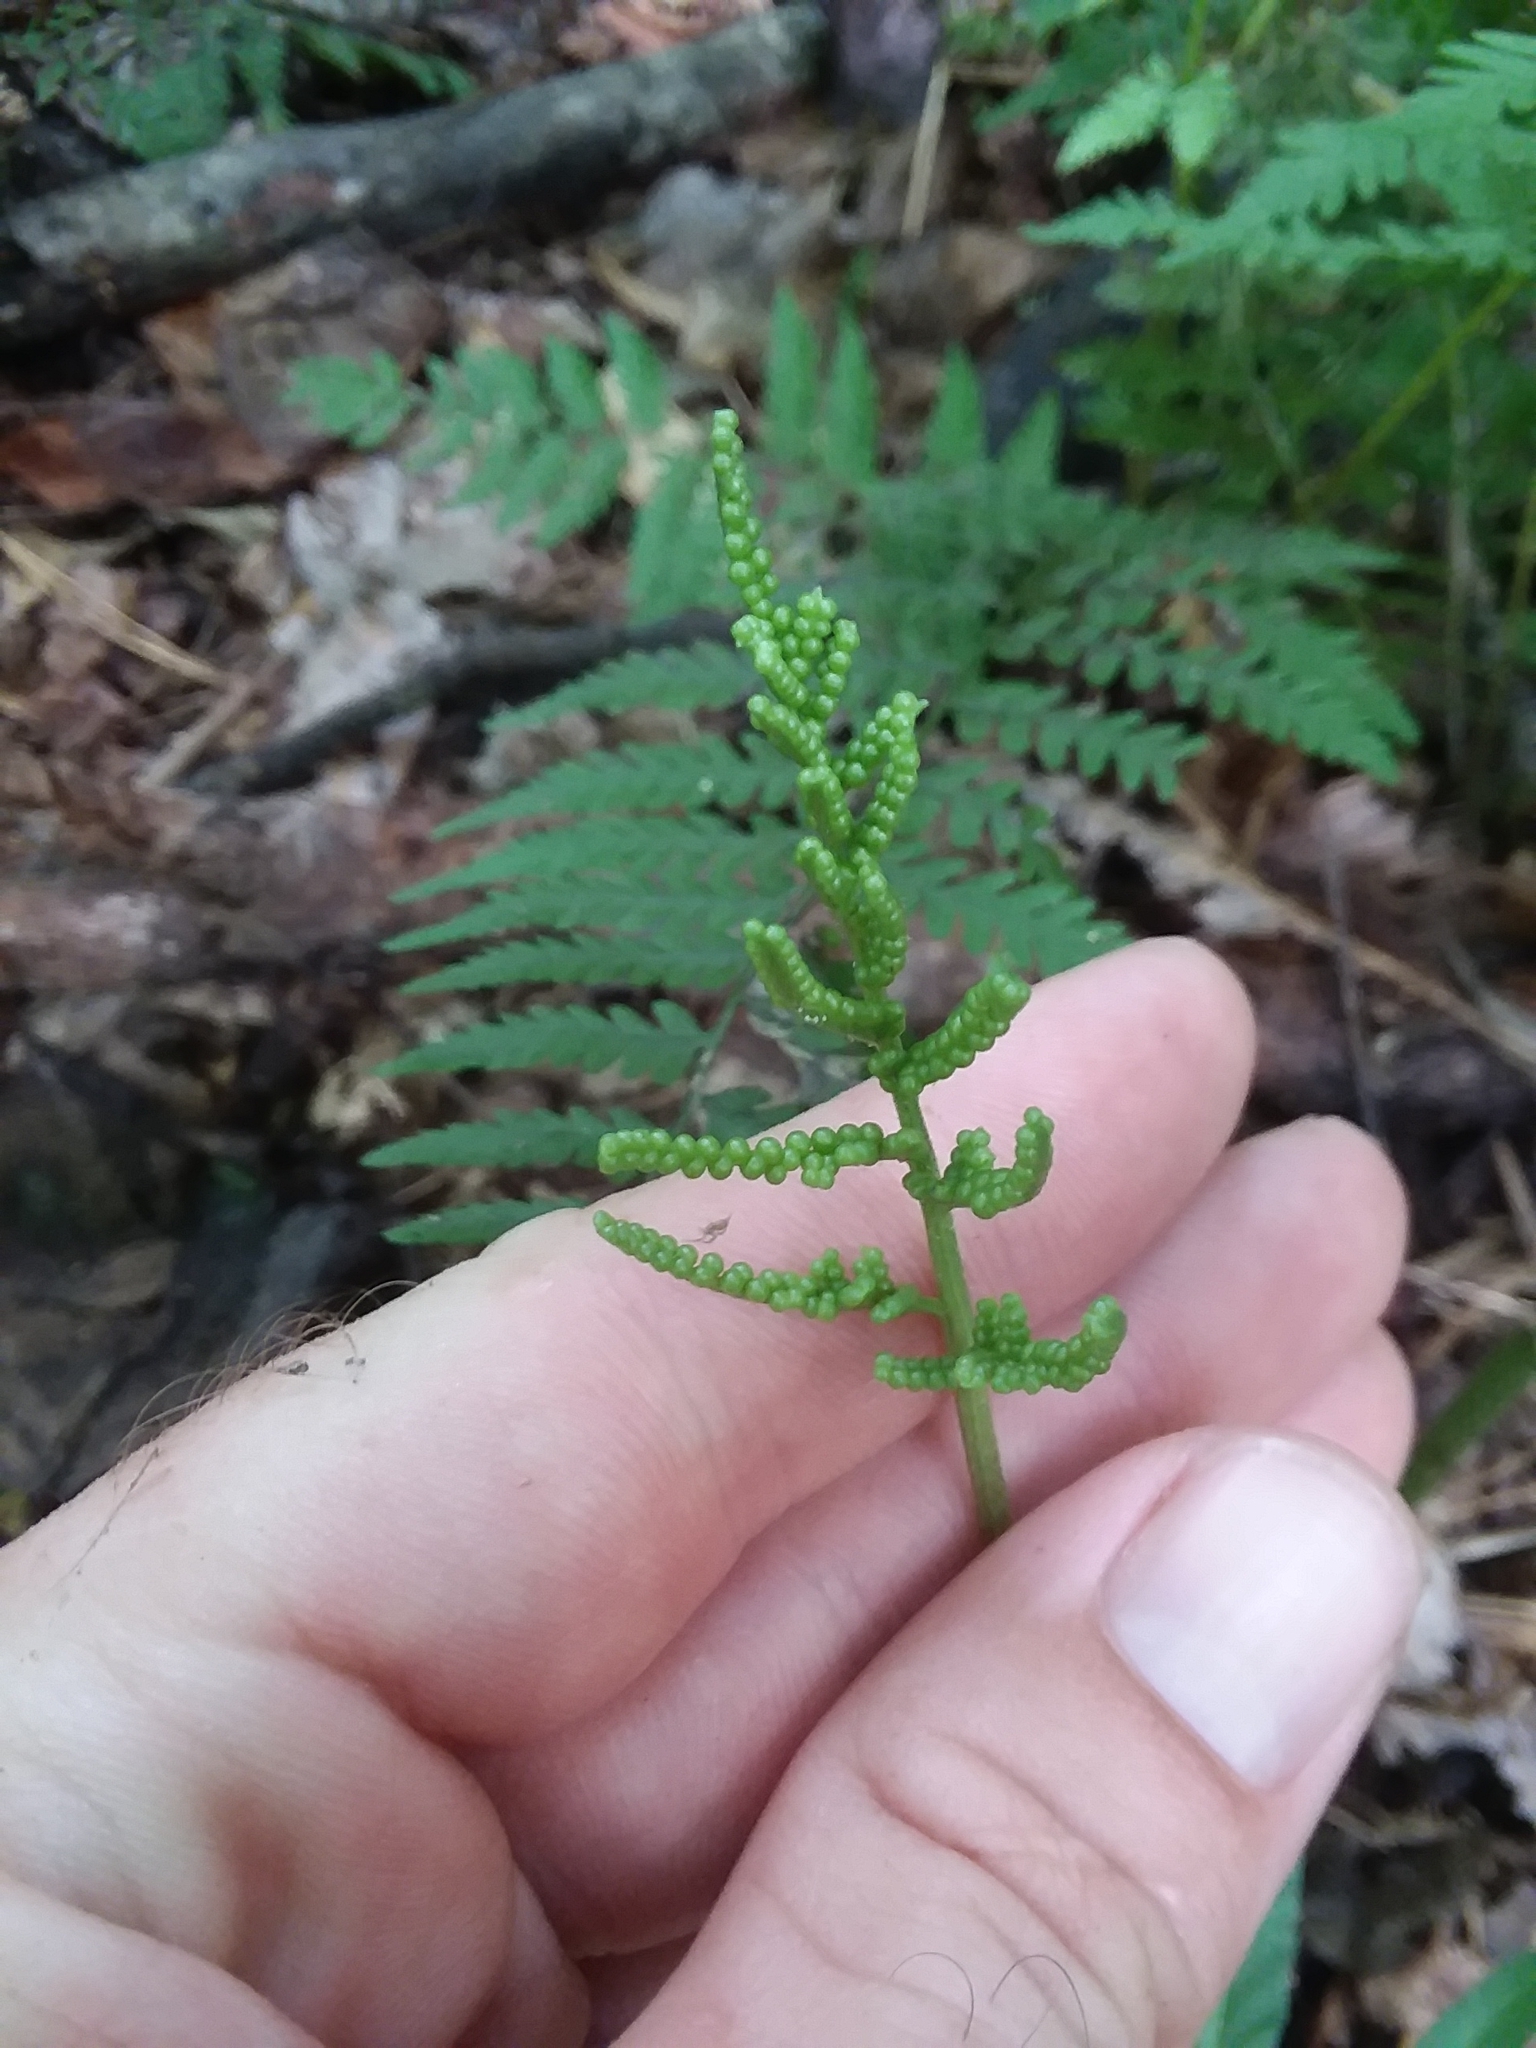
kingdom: Plantae
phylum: Tracheophyta
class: Polypodiopsida
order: Ophioglossales
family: Ophioglossaceae
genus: Sceptridium
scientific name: Sceptridium biternatum
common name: Sparse-lobed grapefern
